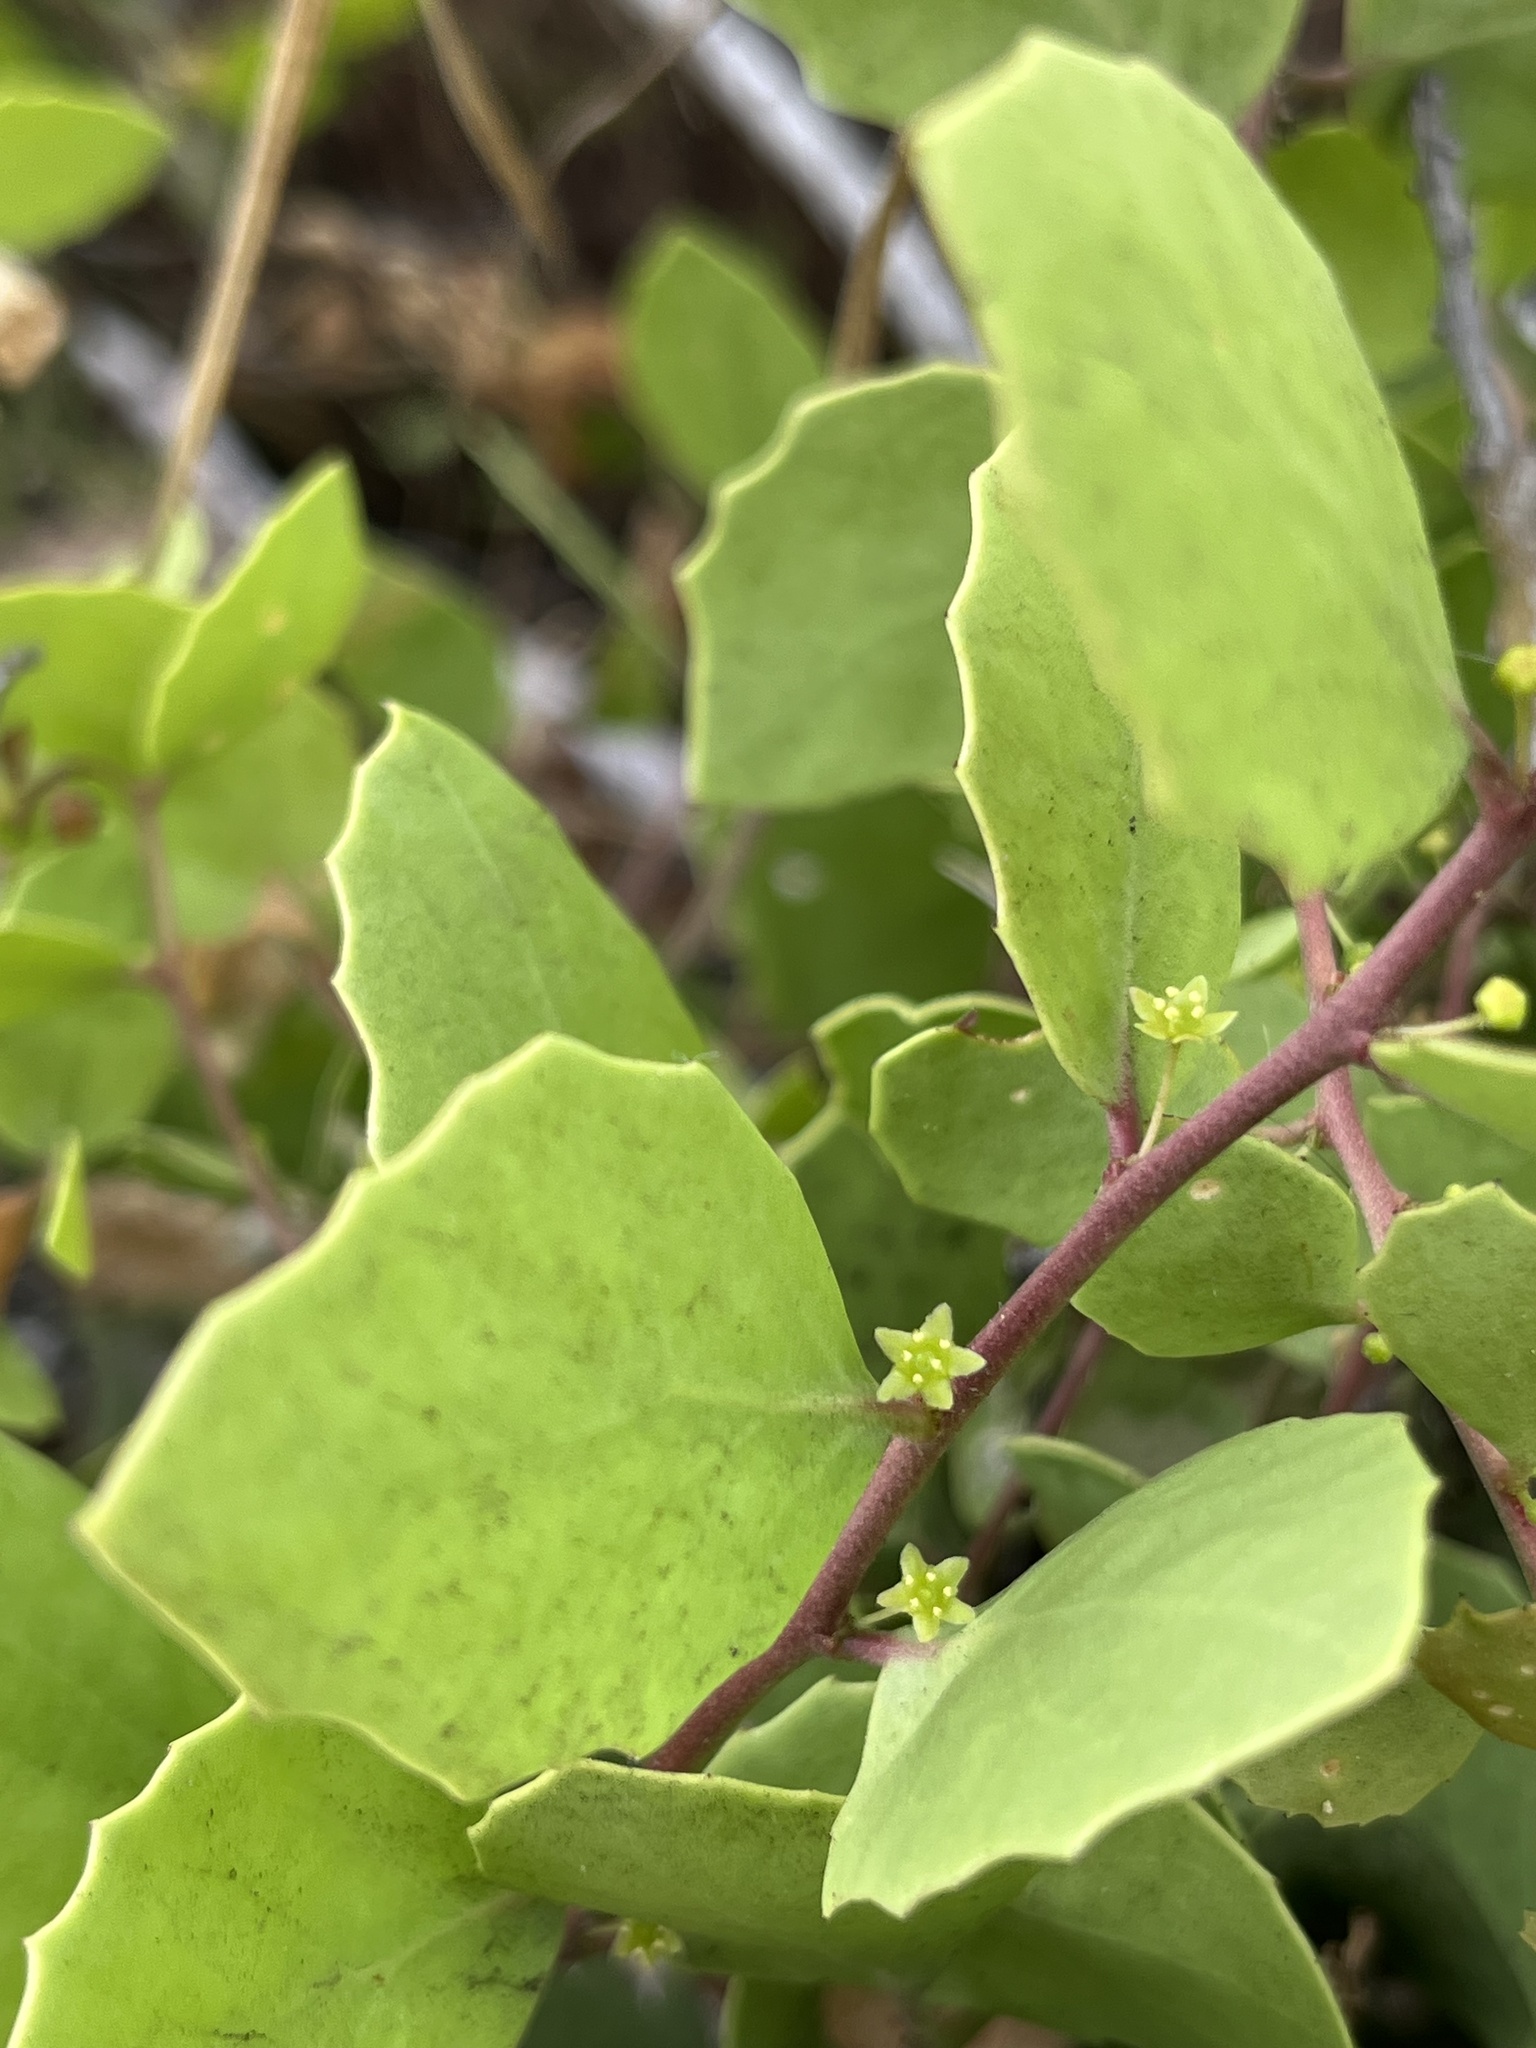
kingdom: Plantae
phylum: Tracheophyta
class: Magnoliopsida
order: Celastrales
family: Celastraceae
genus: Tricerma
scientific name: Tricerma octogonum
